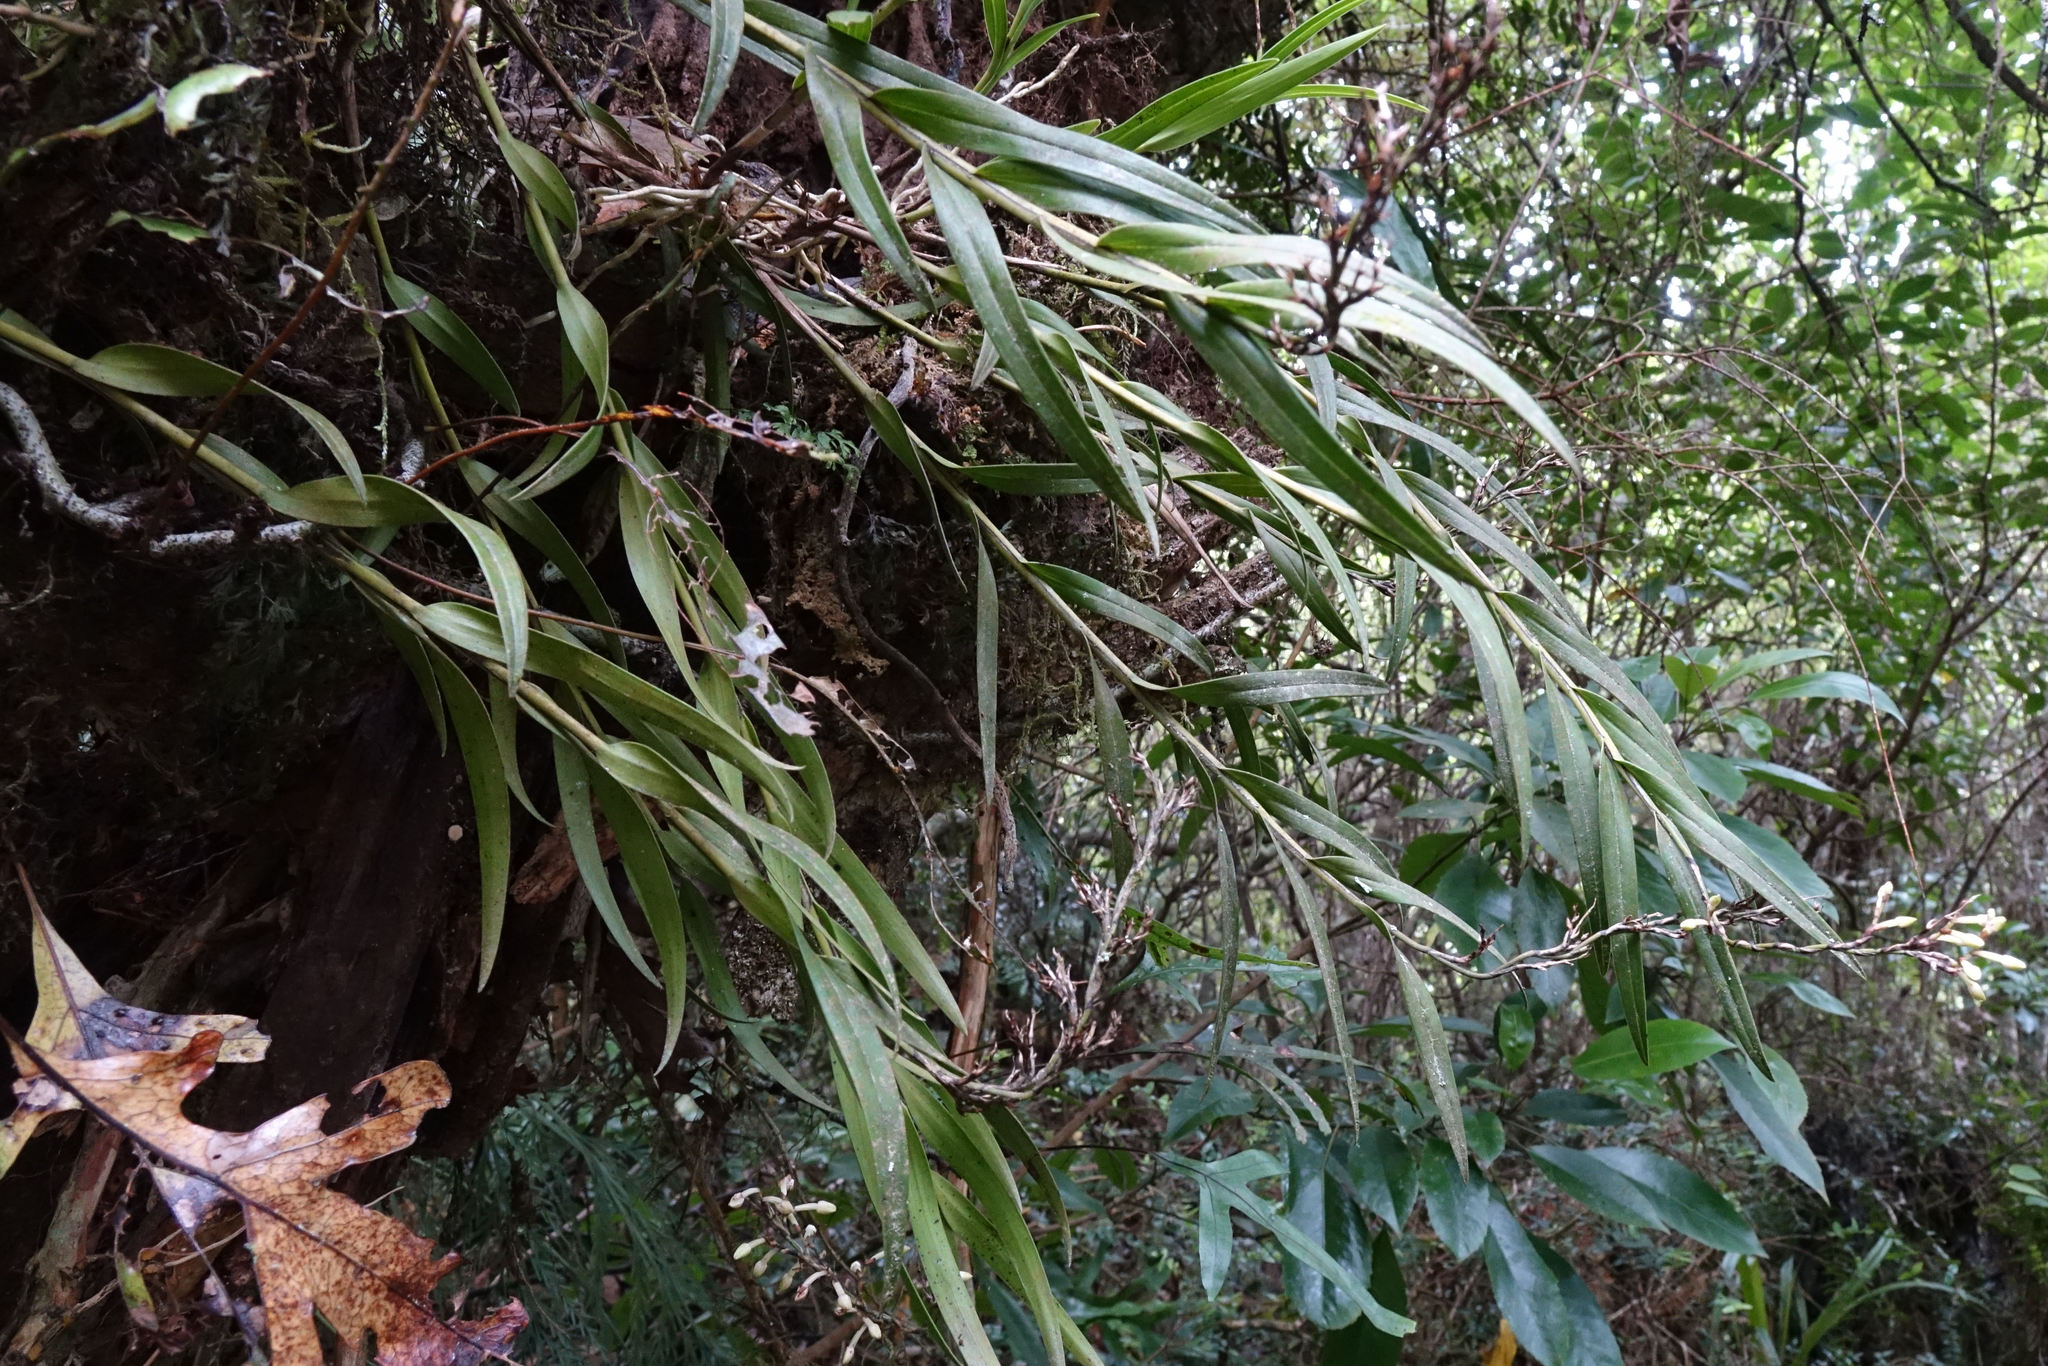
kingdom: Plantae
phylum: Tracheophyta
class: Liliopsida
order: Asparagales
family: Orchidaceae
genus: Earina
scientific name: Earina autumnalis
